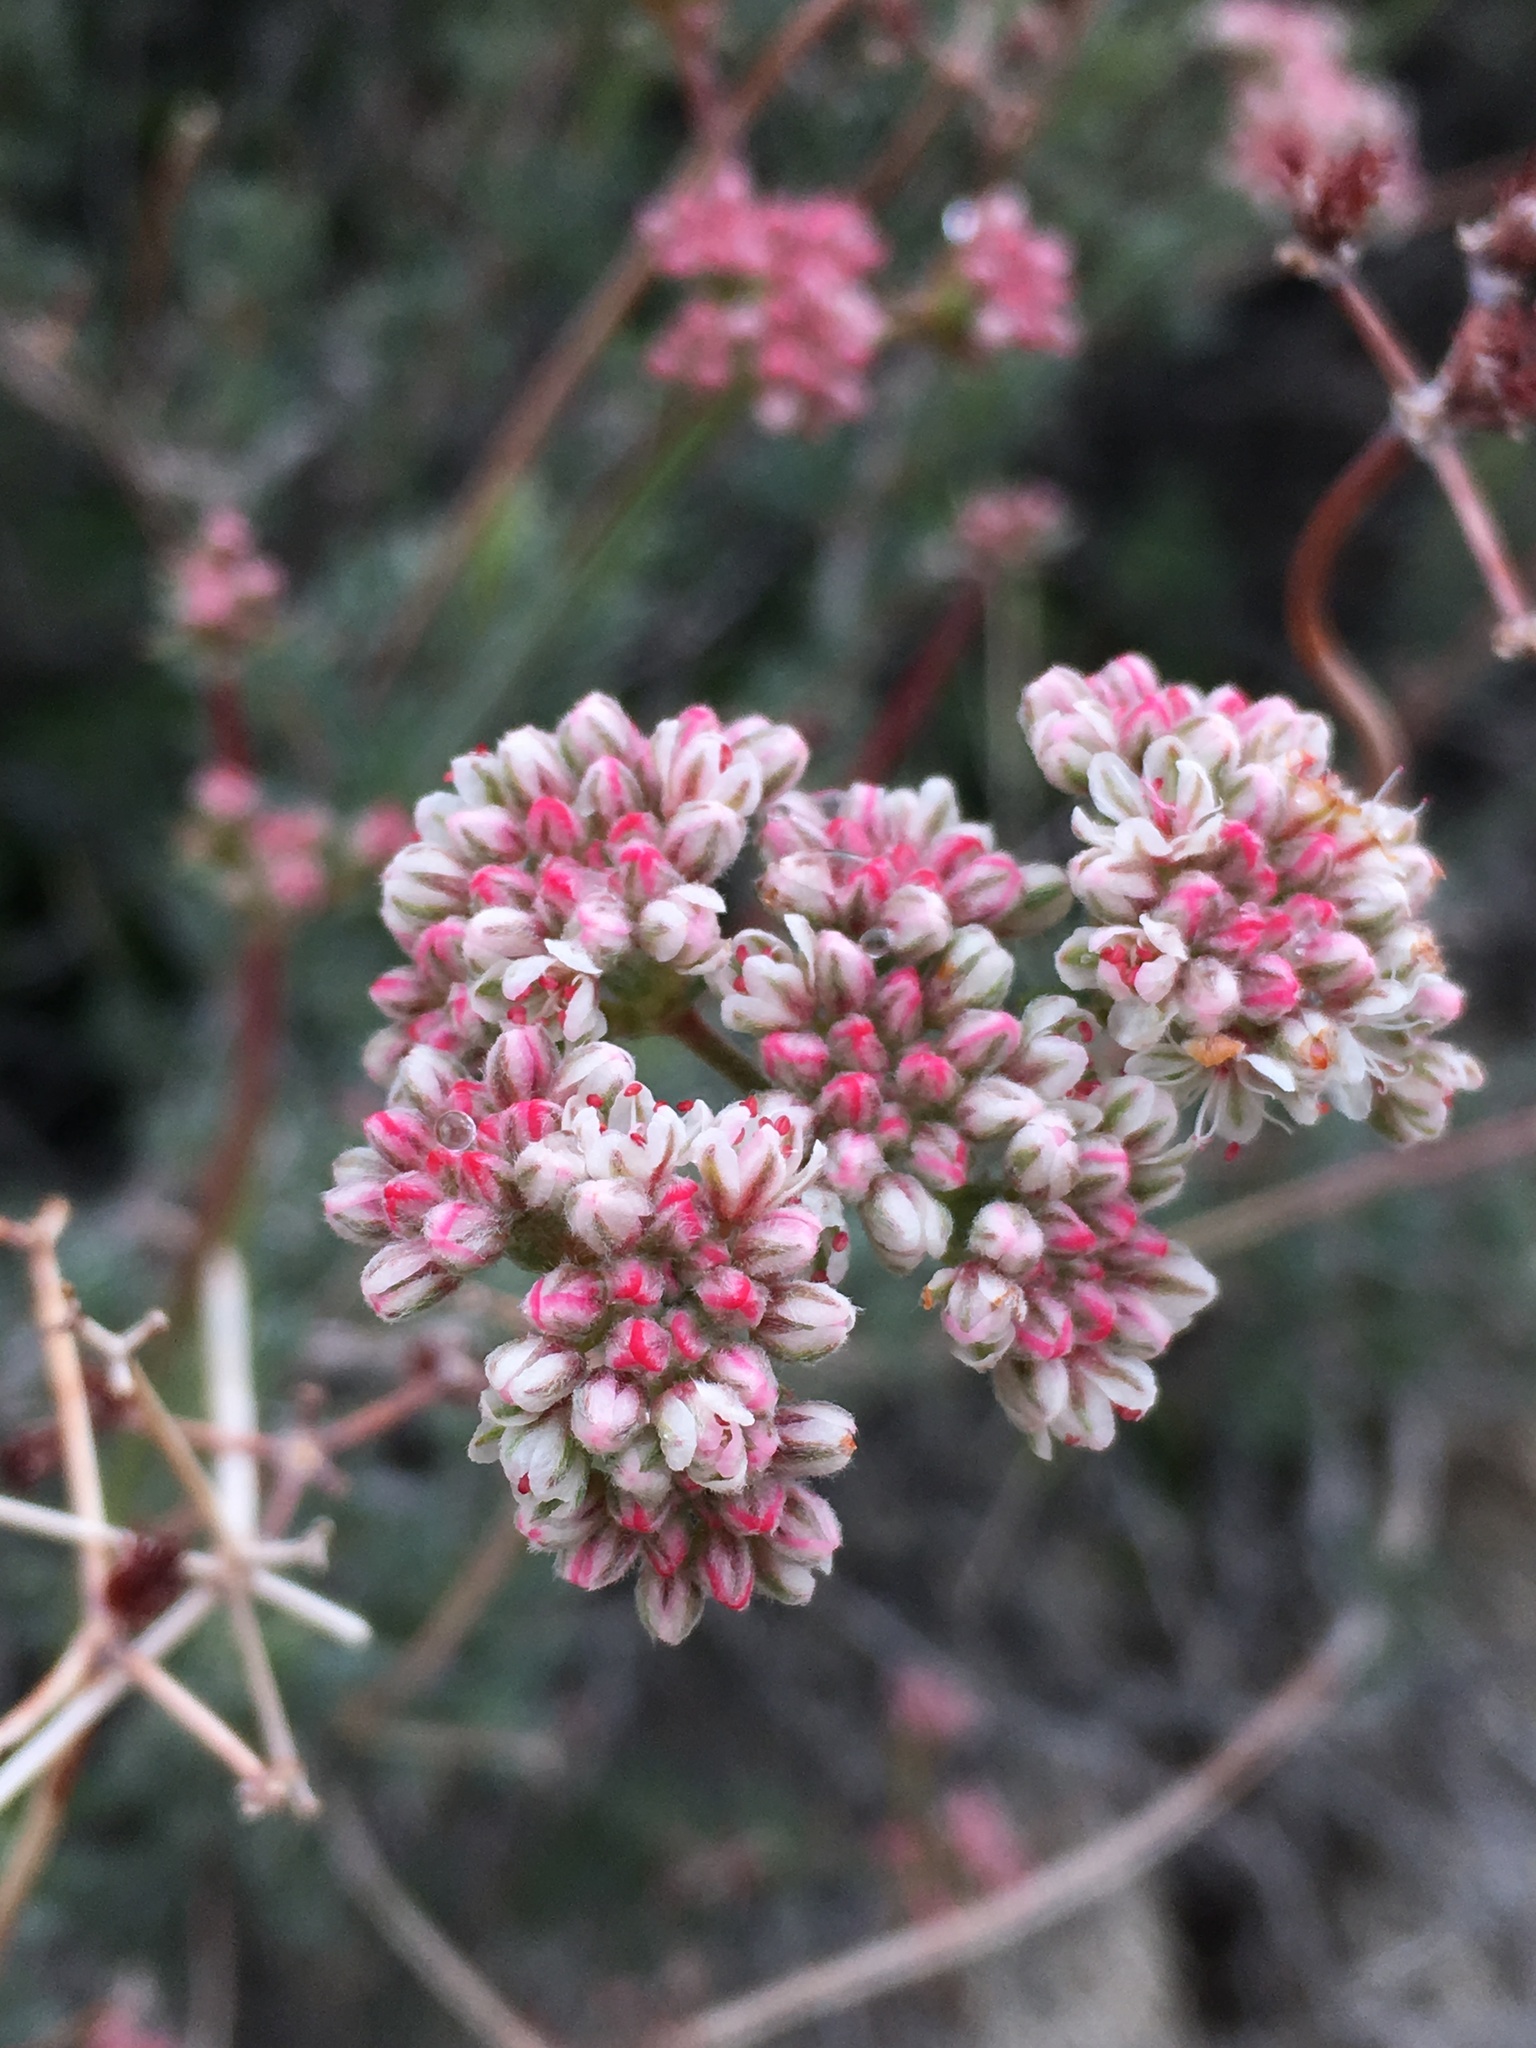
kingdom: Plantae
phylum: Tracheophyta
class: Magnoliopsida
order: Caryophyllales
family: Polygonaceae
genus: Eriogonum
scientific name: Eriogonum fasciculatum
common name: California wild buckwheat
